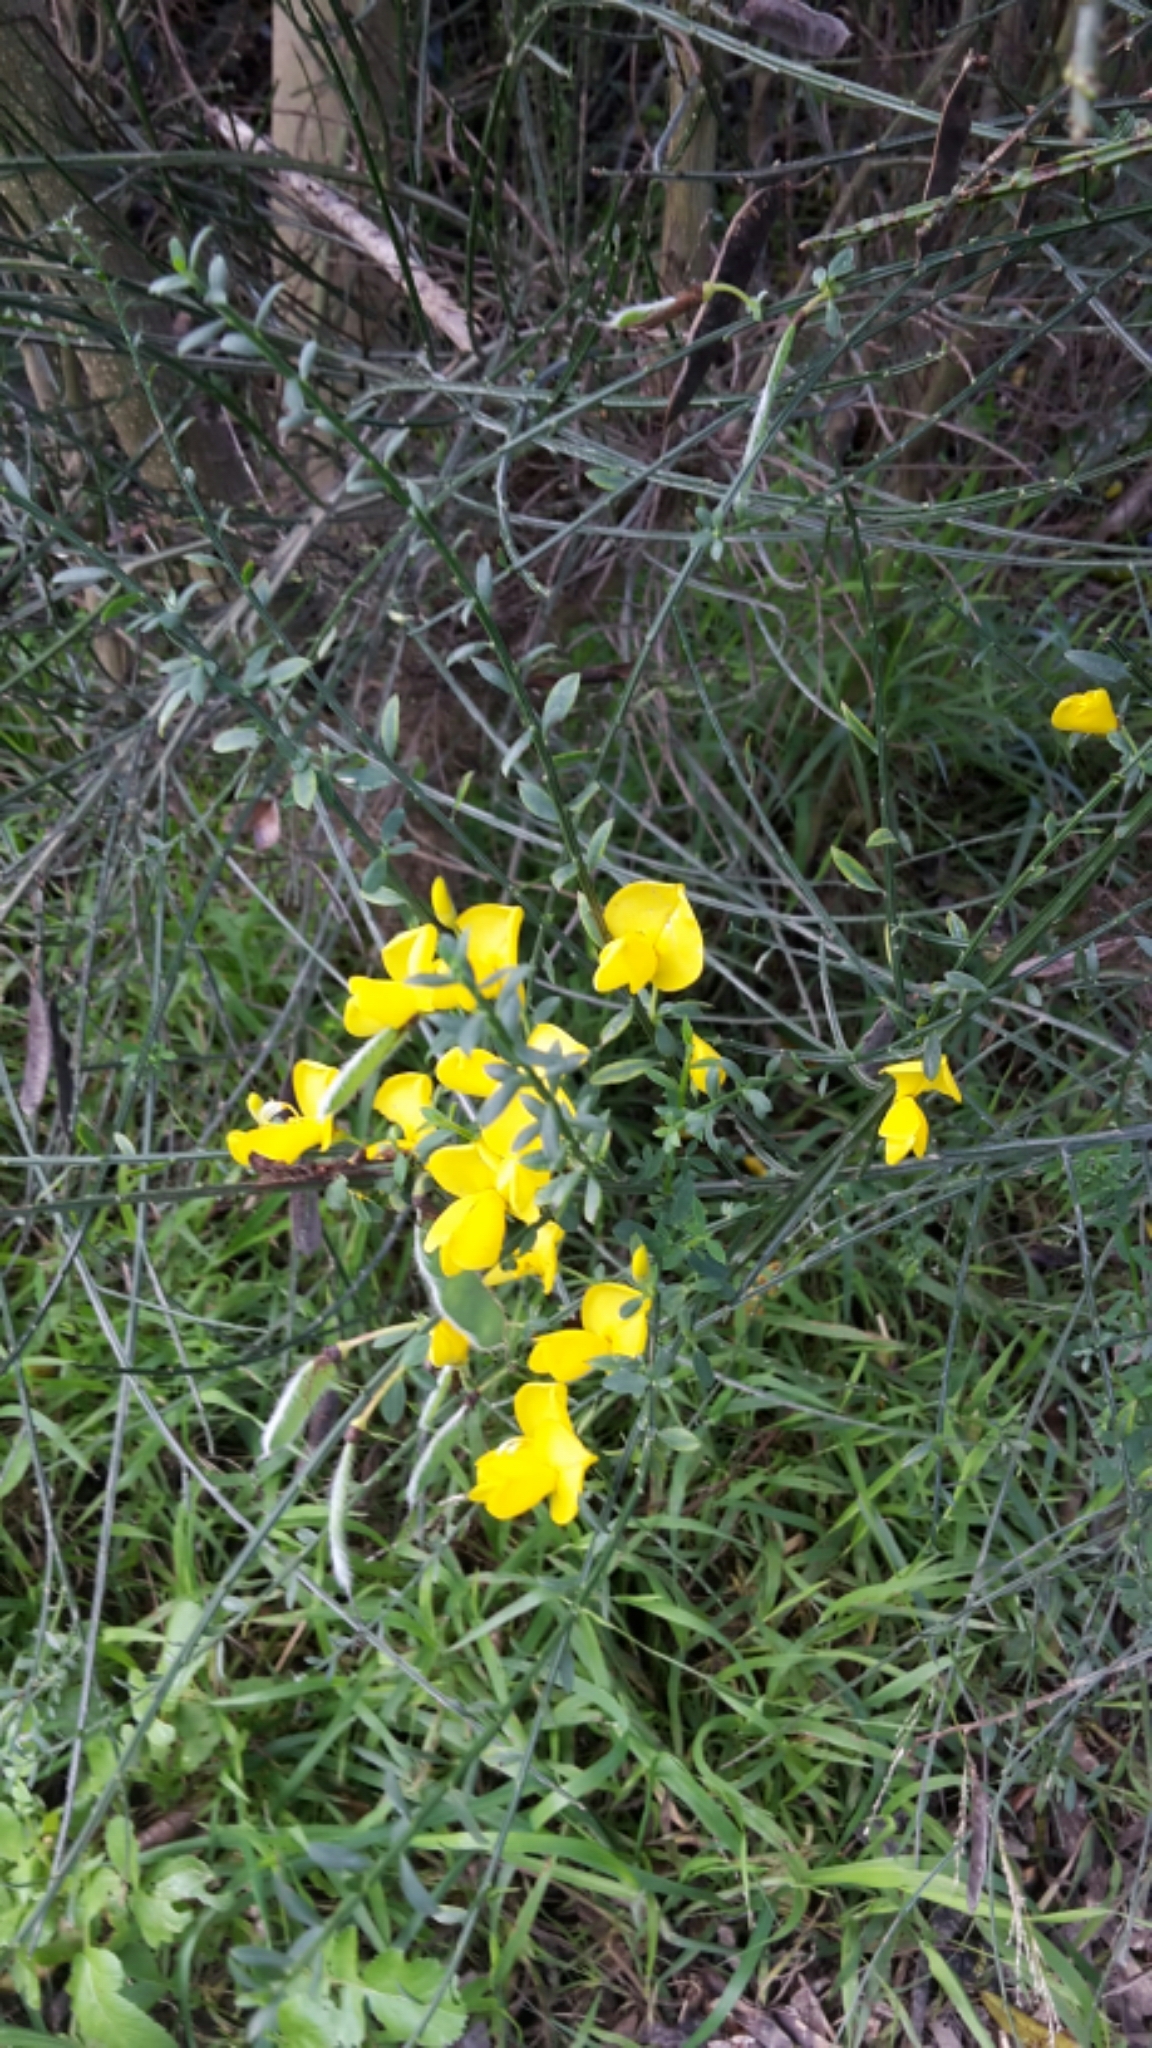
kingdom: Plantae
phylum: Tracheophyta
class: Magnoliopsida
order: Fabales
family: Fabaceae
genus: Cytisus
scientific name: Cytisus scoparius
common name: Scotch broom
